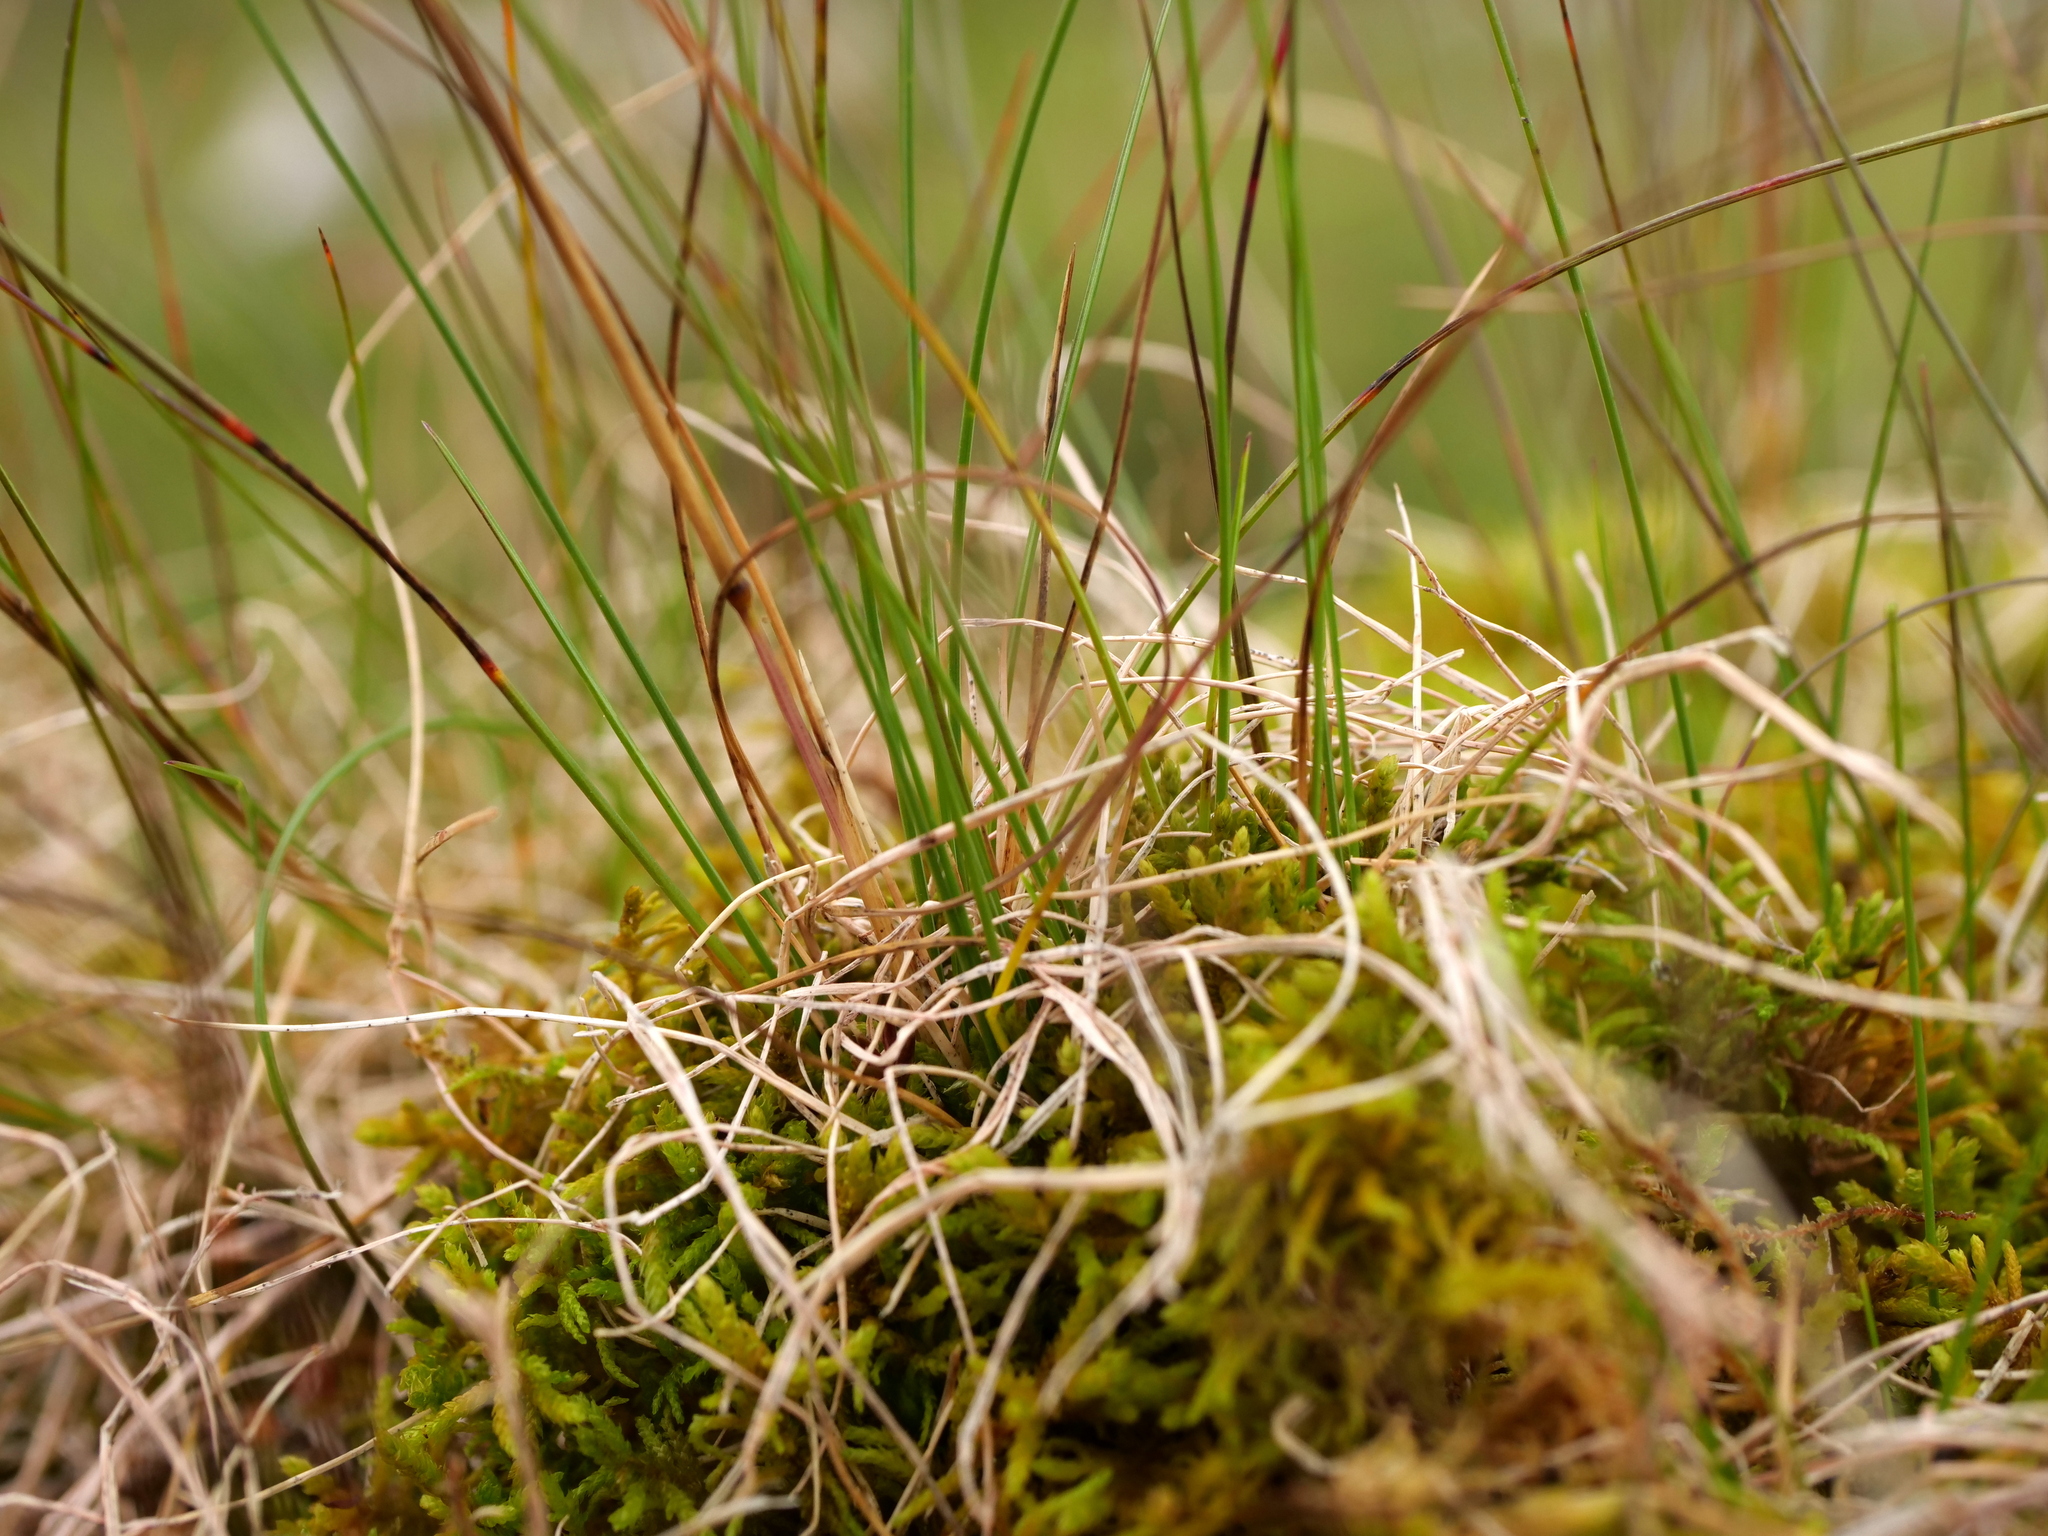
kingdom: Plantae
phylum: Tracheophyta
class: Liliopsida
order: Poales
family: Poaceae
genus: Festuca
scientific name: Festuca quadriflora
